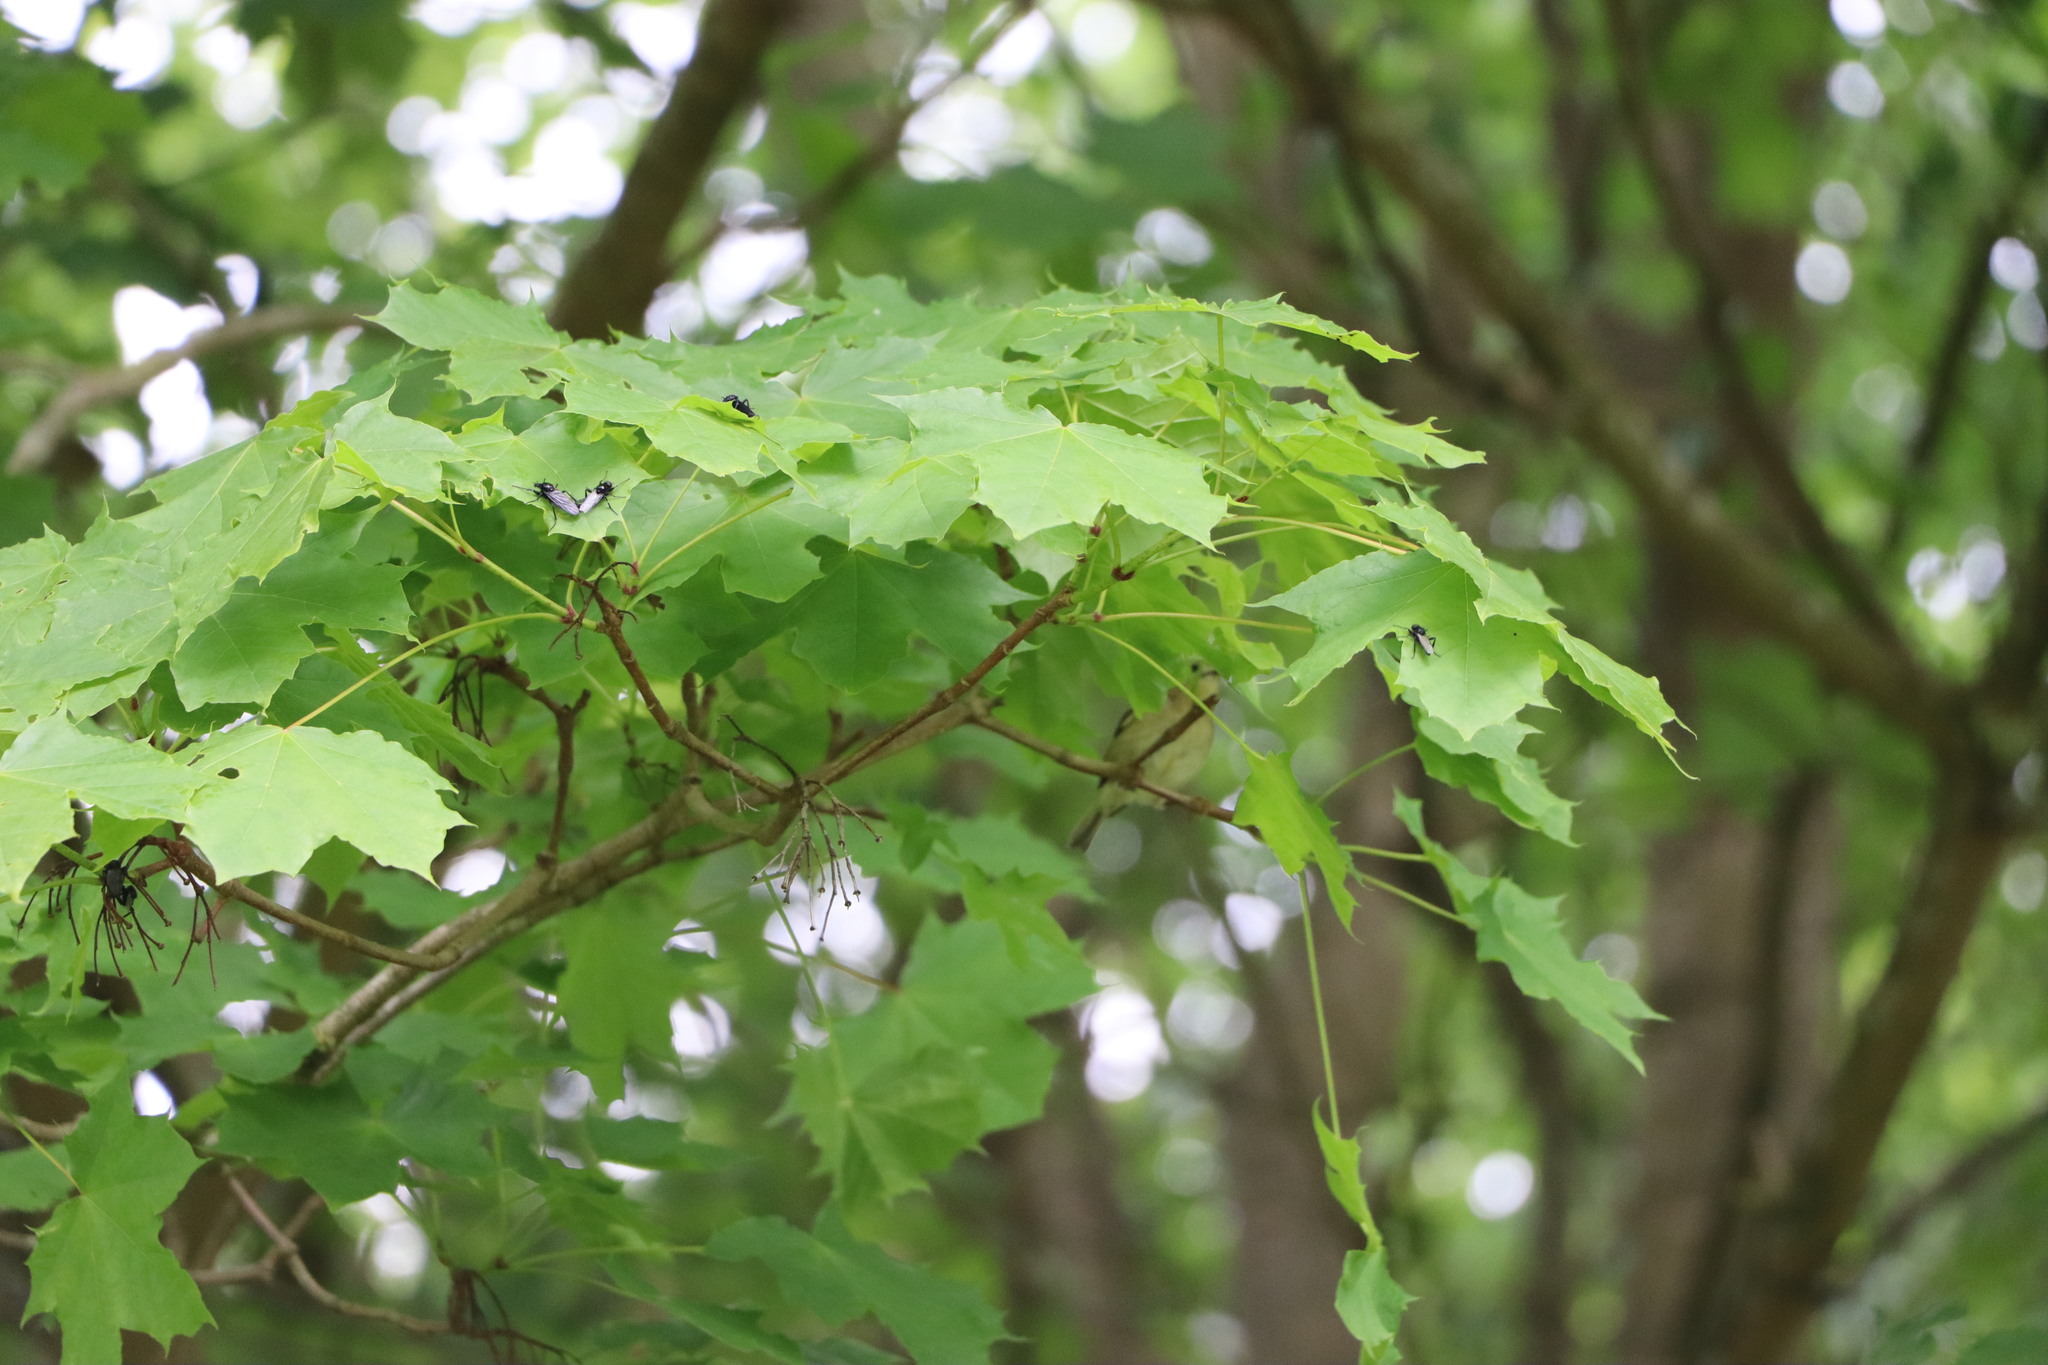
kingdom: Animalia
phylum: Chordata
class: Aves
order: Passeriformes
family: Regulidae
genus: Regulus
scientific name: Regulus regulus
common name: Goldcrest
